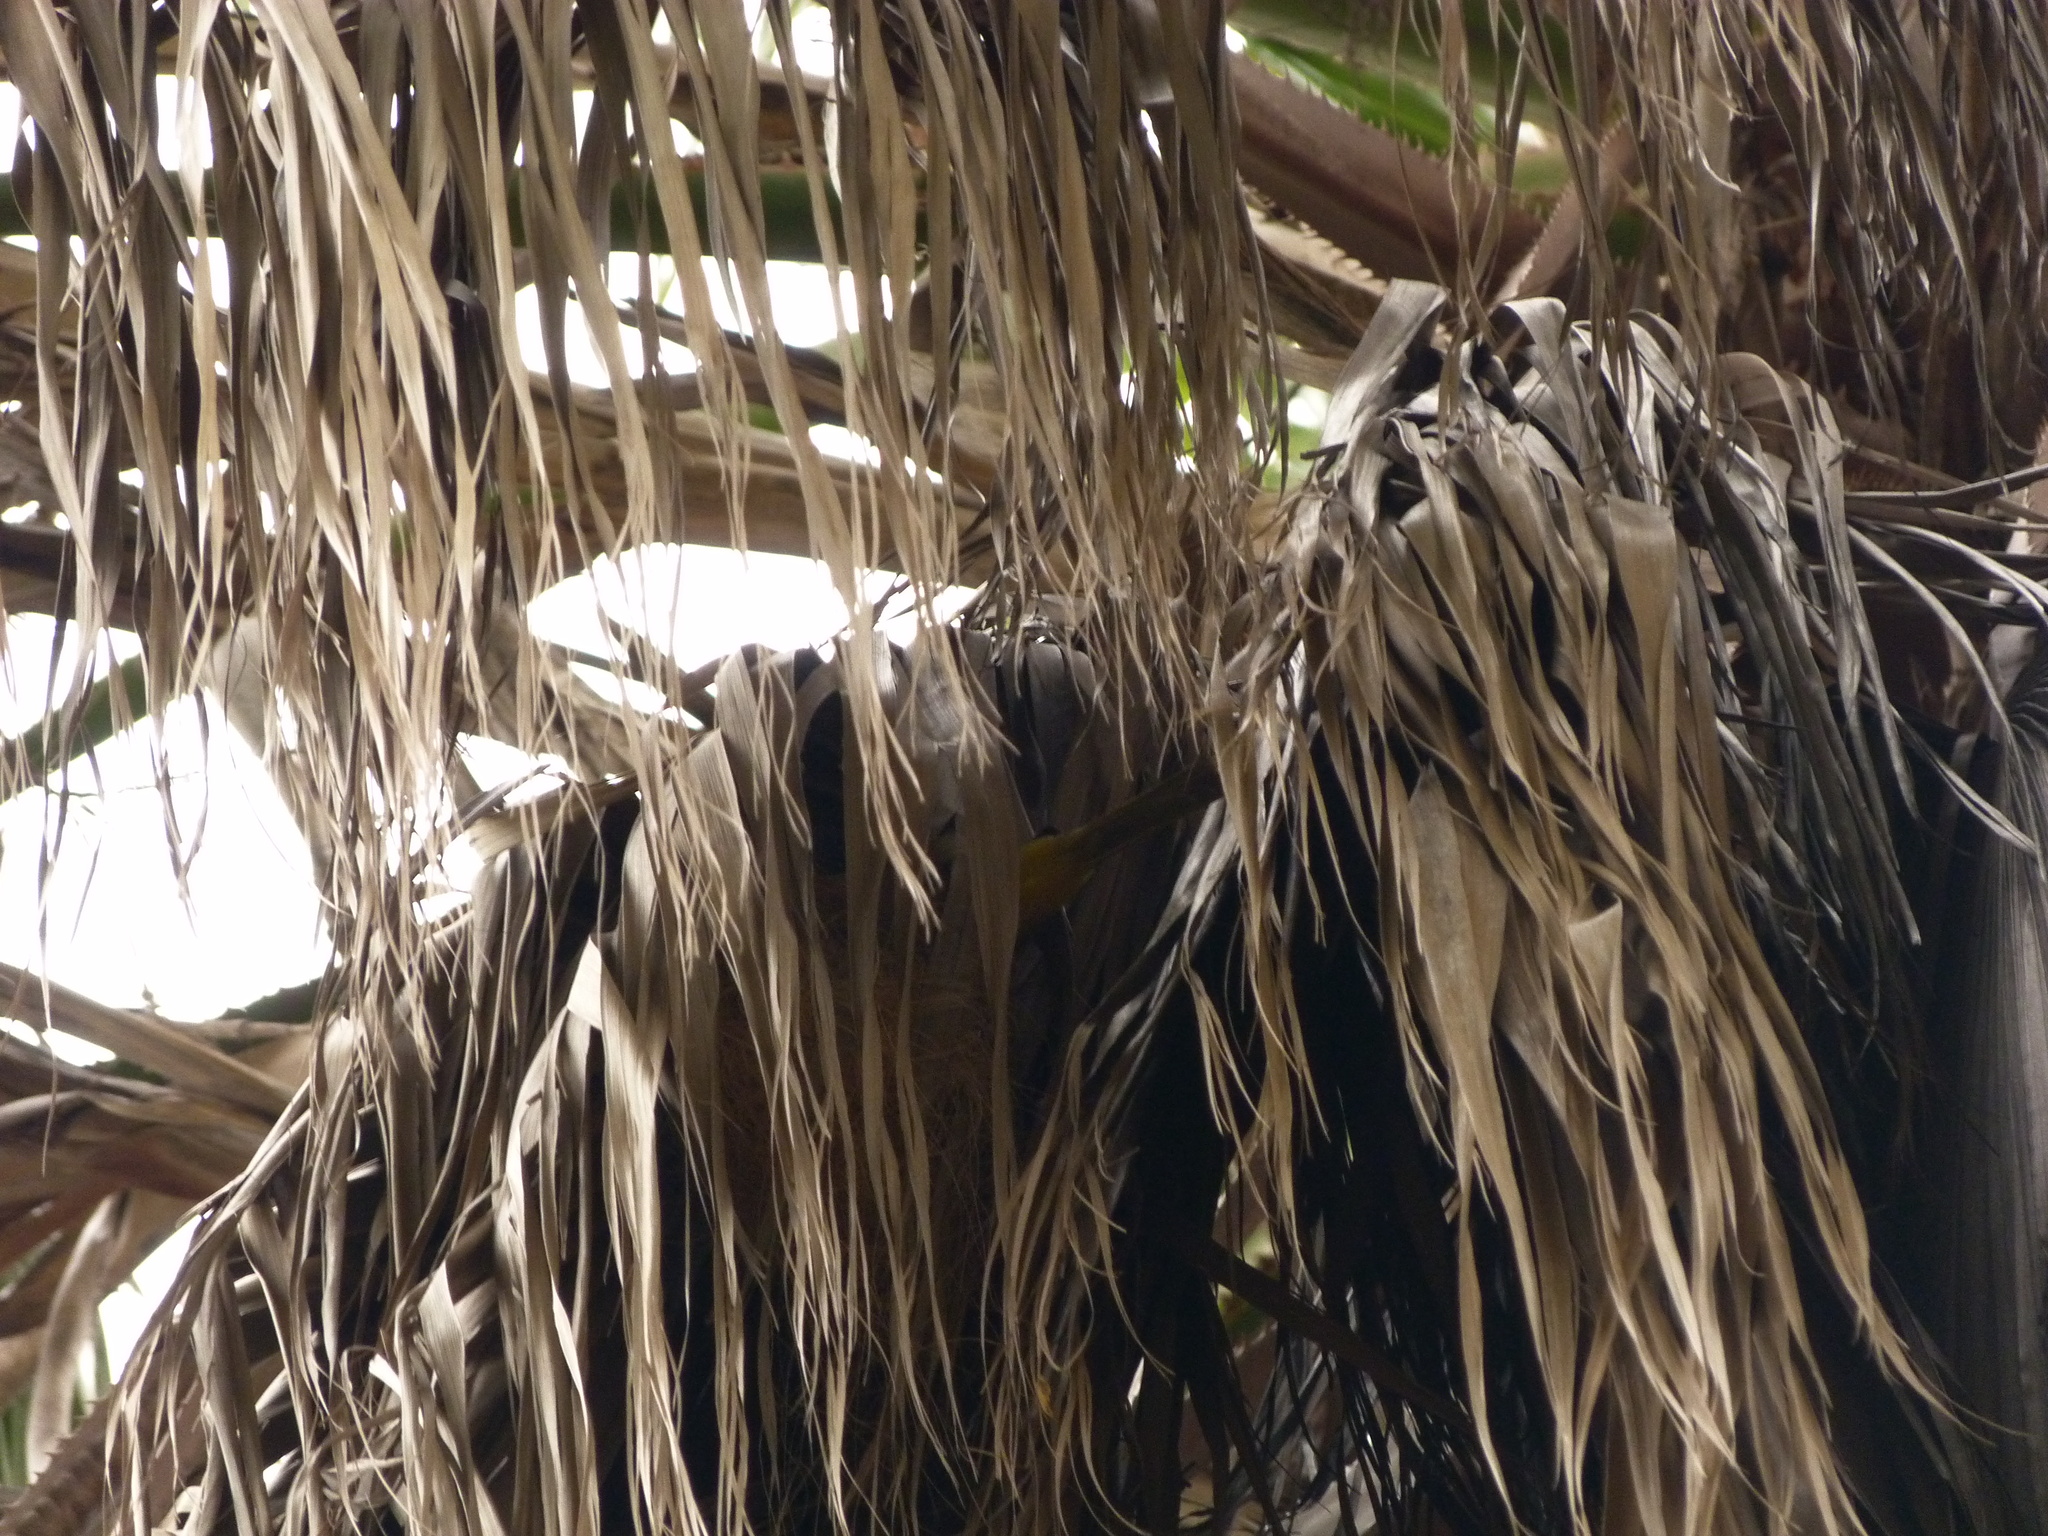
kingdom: Animalia
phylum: Chordata
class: Aves
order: Passeriformes
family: Icteridae
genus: Icterus
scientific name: Icterus cucullatus
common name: Hooded oriole
